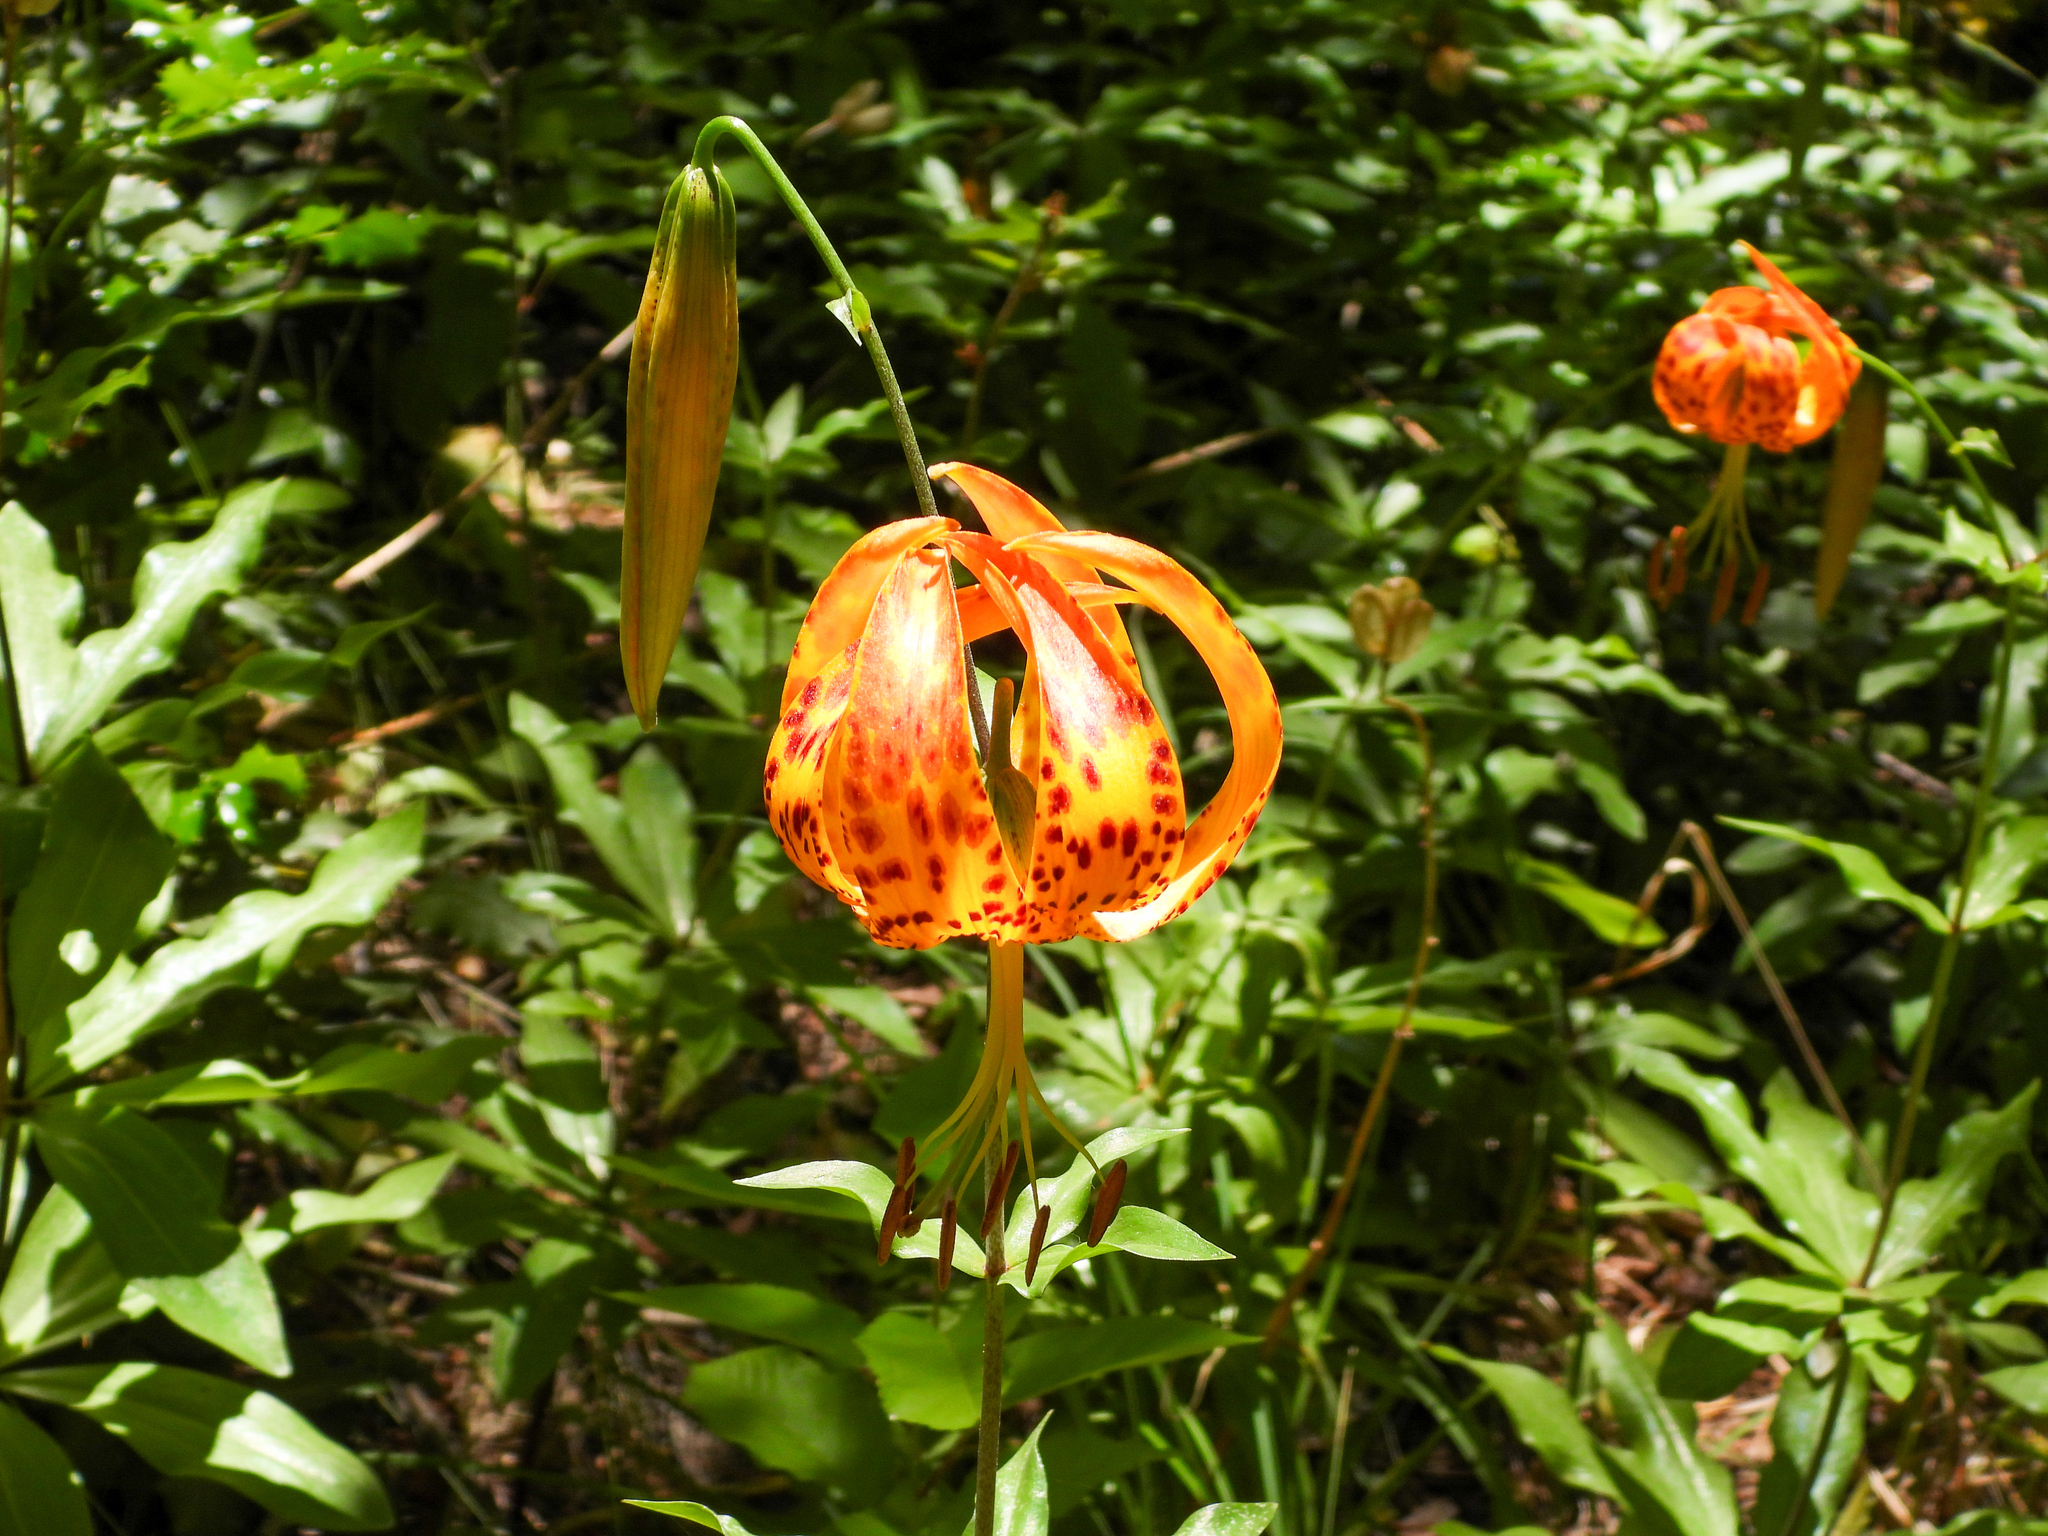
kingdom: Plantae
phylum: Tracheophyta
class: Liliopsida
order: Liliales
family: Liliaceae
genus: Lilium
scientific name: Lilium humboldtii
